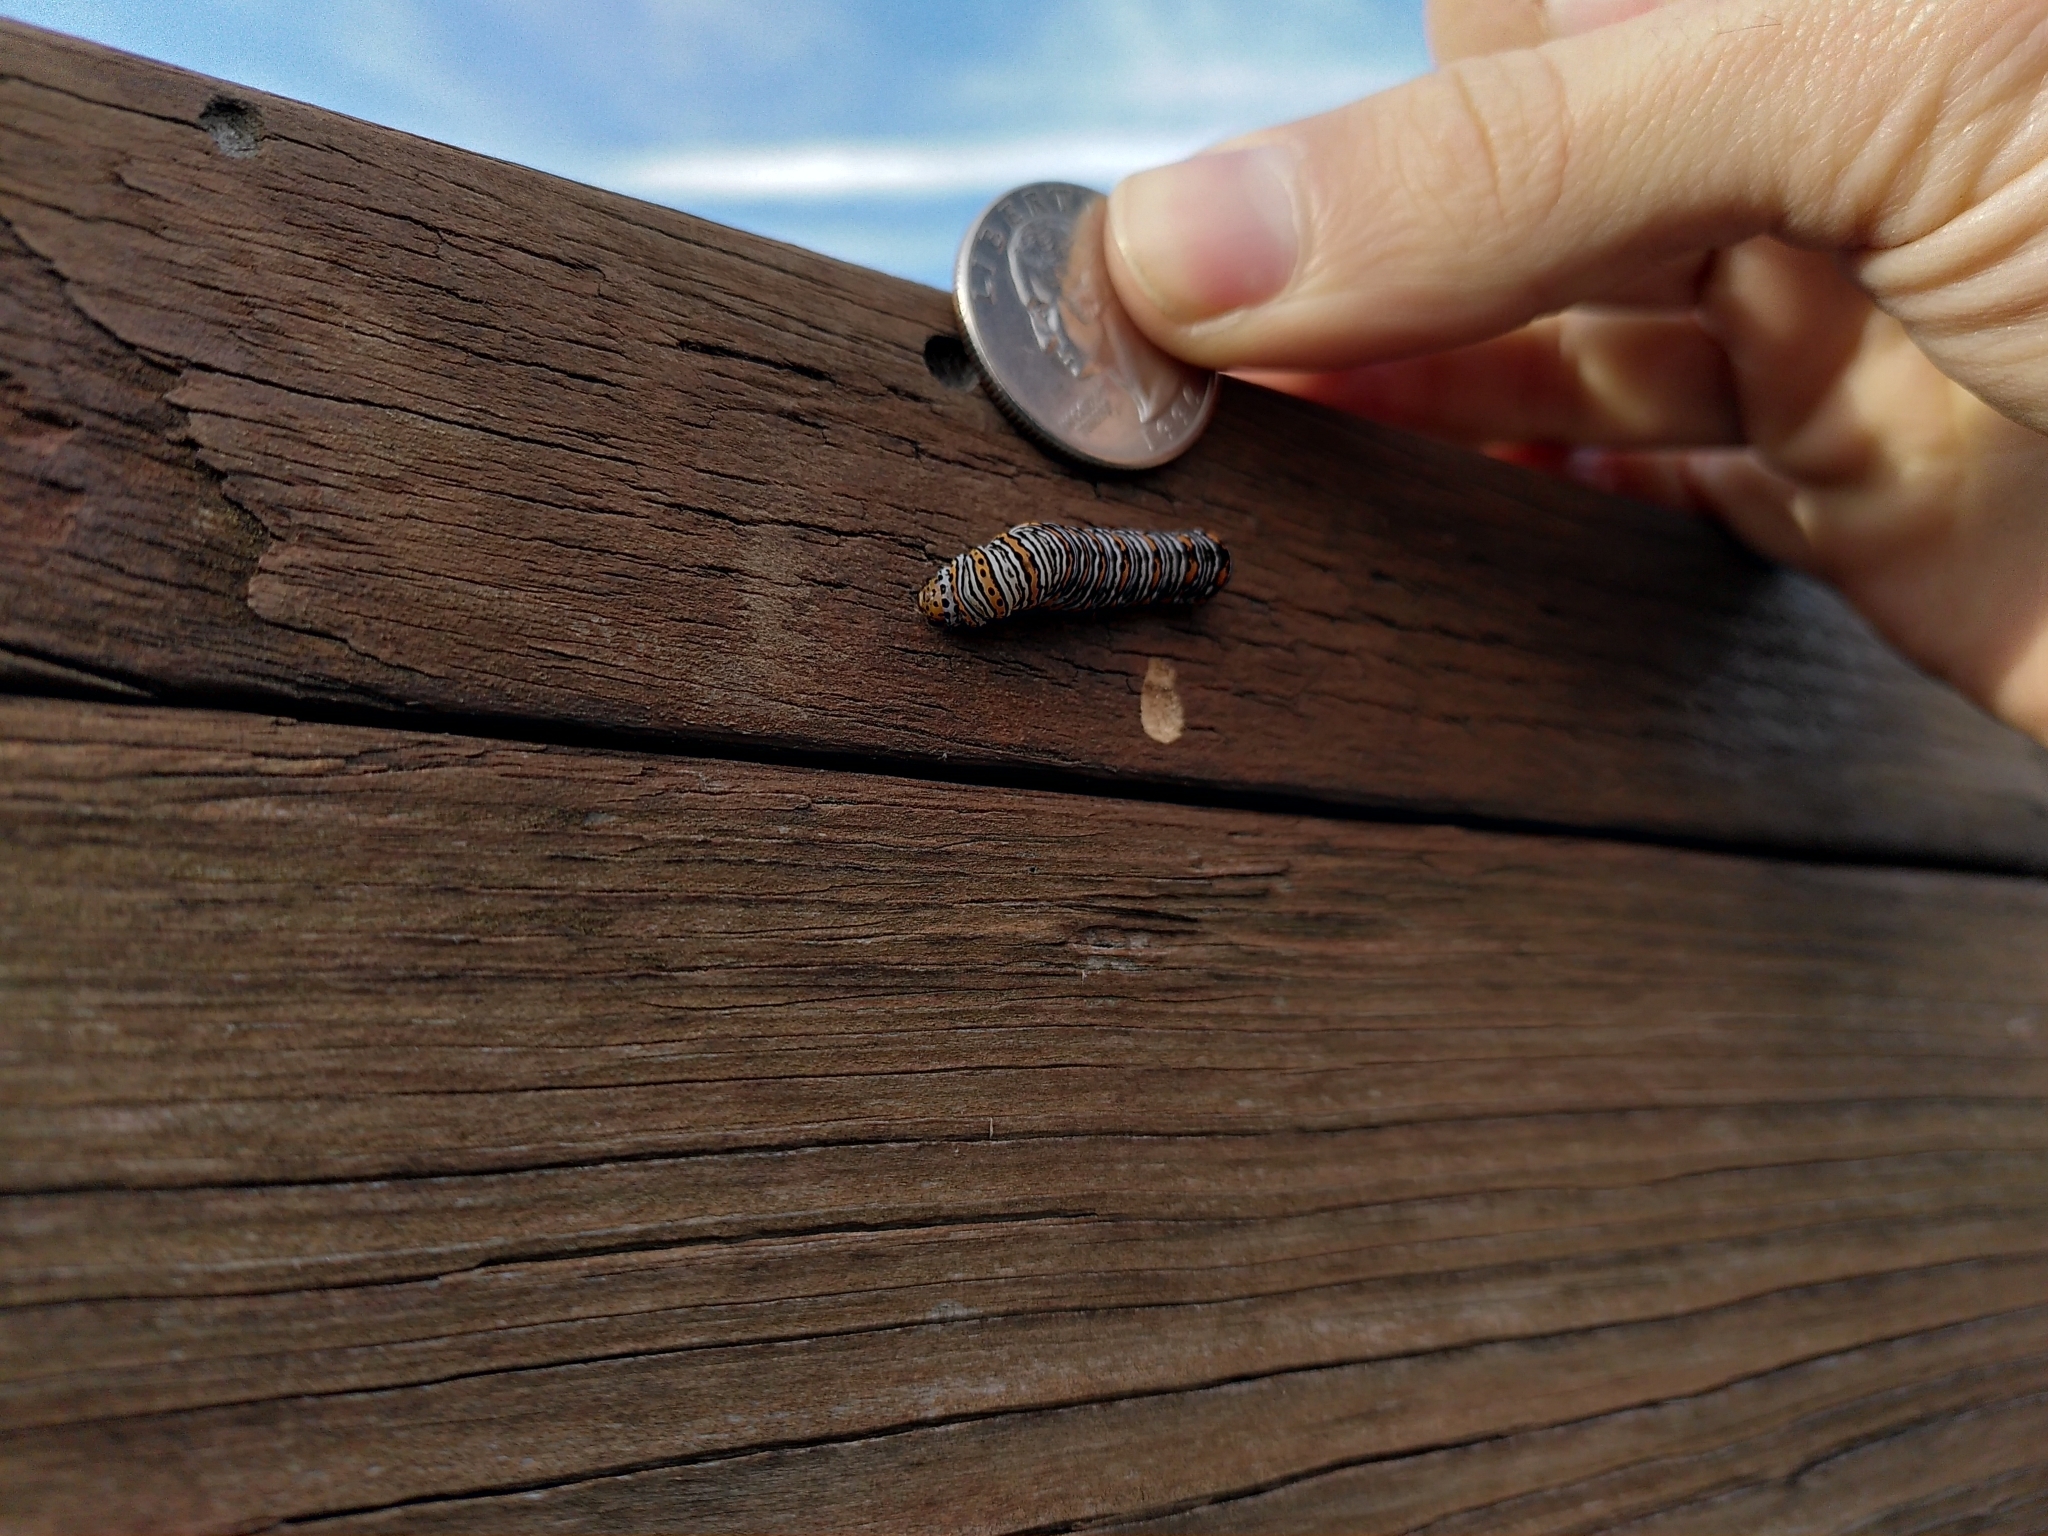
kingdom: Animalia
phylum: Arthropoda
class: Insecta
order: Lepidoptera
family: Noctuidae
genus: Eudryas
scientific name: Eudryas unio
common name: Pearly wood-nymph
